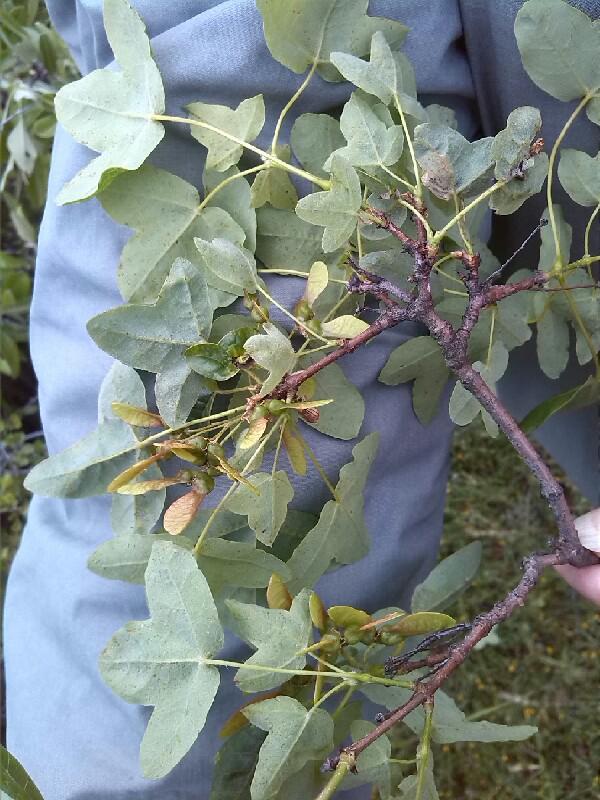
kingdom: Plantae
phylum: Tracheophyta
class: Magnoliopsida
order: Sapindales
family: Sapindaceae
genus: Acer
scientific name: Acer monspessulanum
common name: Montpellier maple
